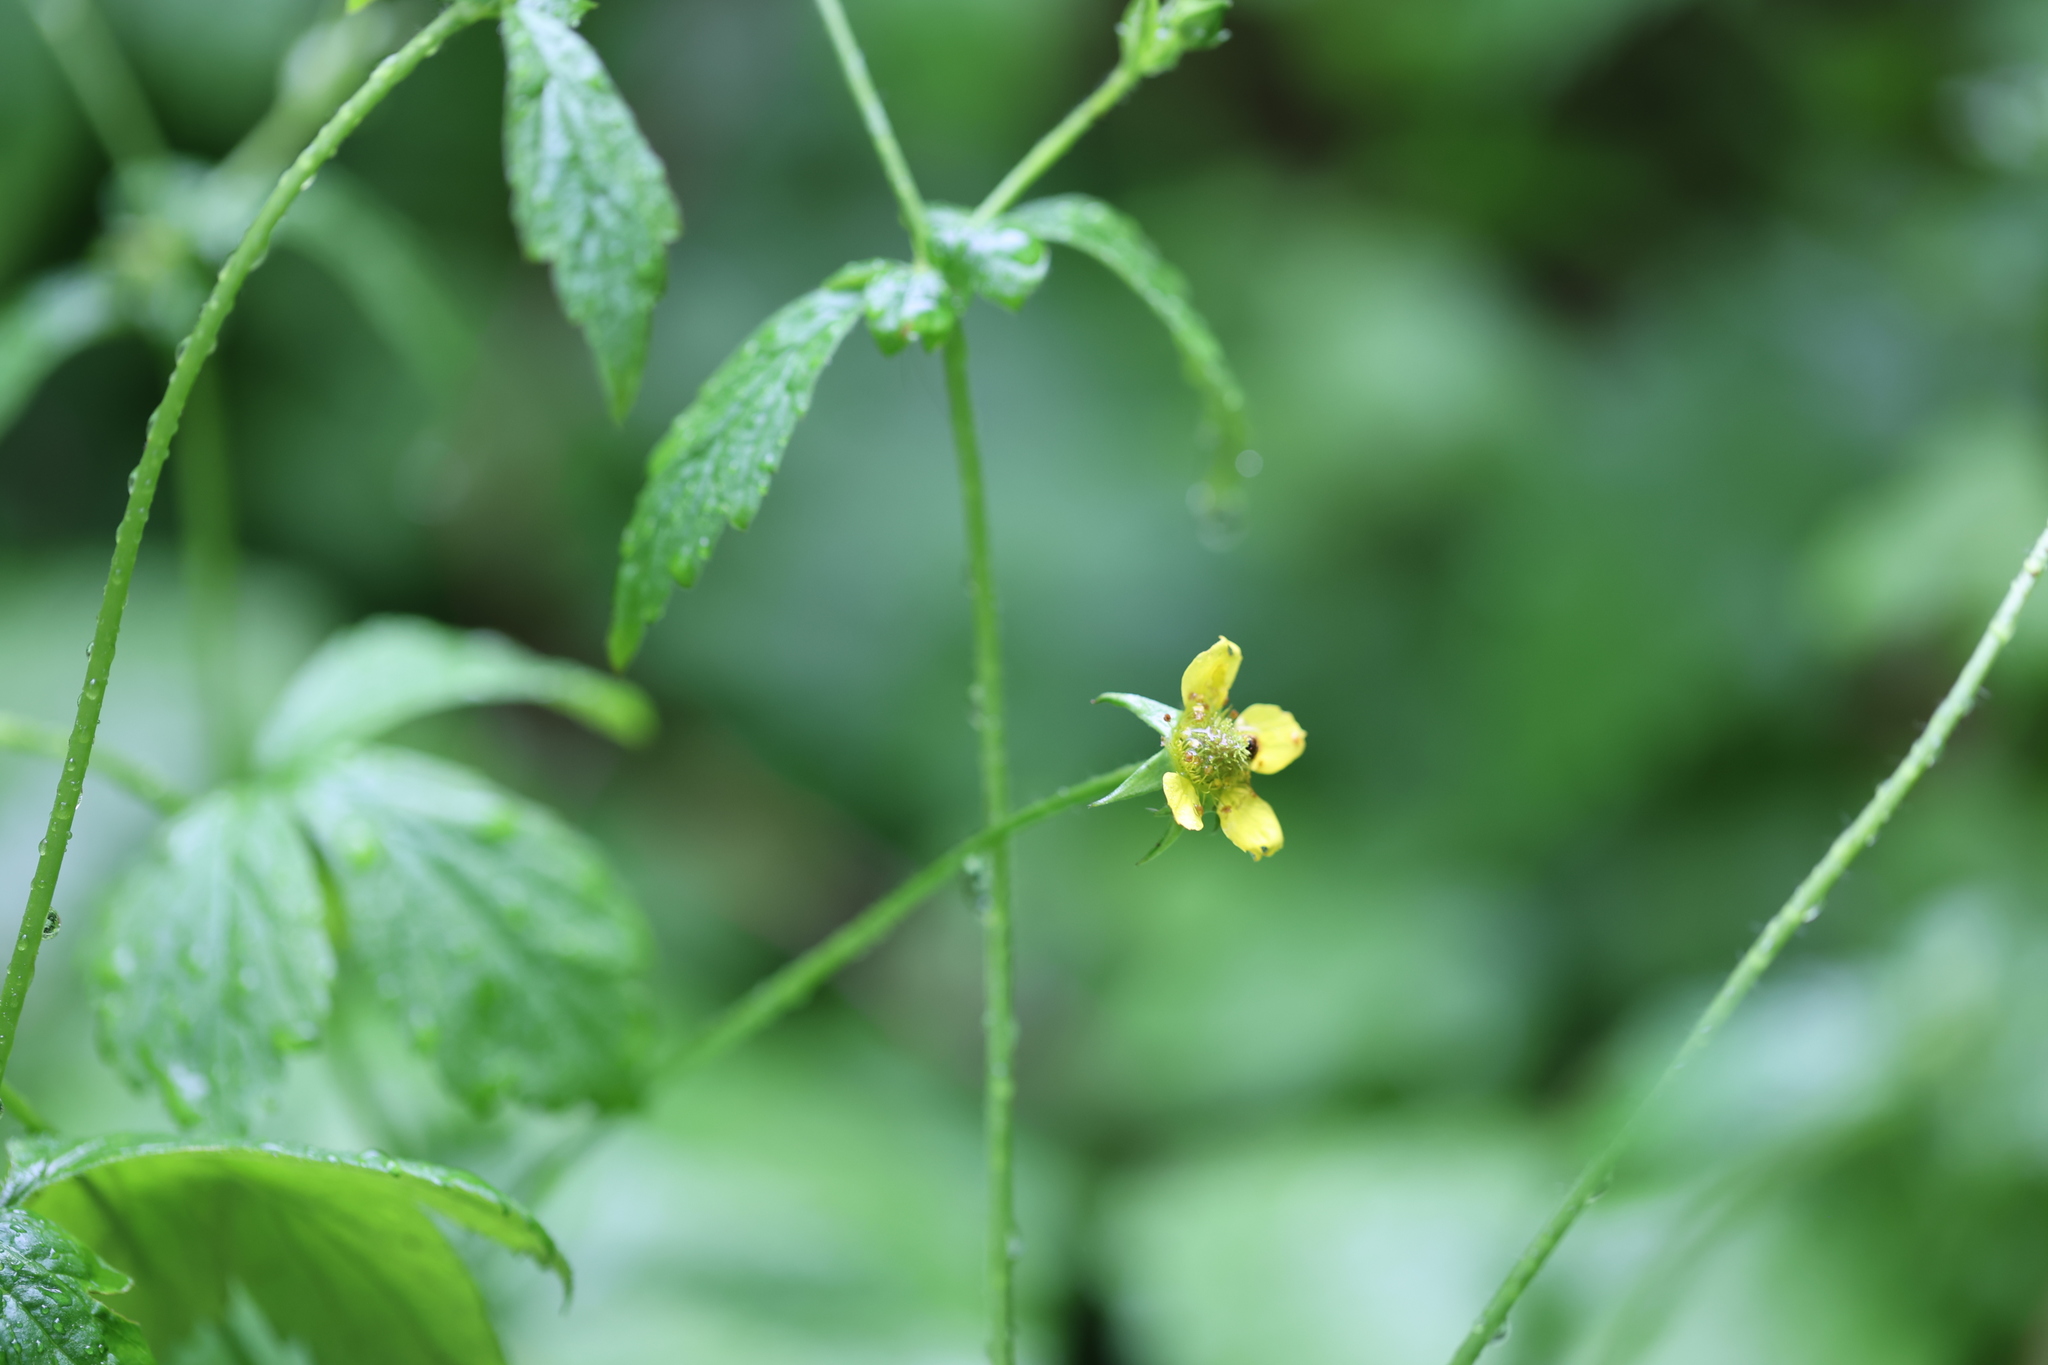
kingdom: Plantae
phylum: Tracheophyta
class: Magnoliopsida
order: Rosales
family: Rosaceae
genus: Geum
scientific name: Geum urbanum
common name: Wood avens
